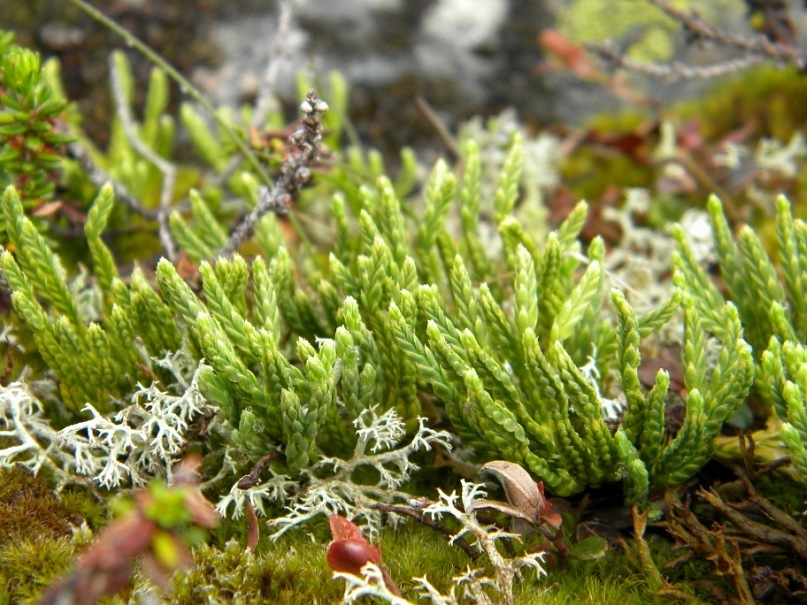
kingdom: Plantae
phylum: Tracheophyta
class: Lycopodiopsida
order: Lycopodiales
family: Lycopodiaceae
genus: Diphasiastrum
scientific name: Diphasiastrum alpinum
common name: Alpine clubmoss
